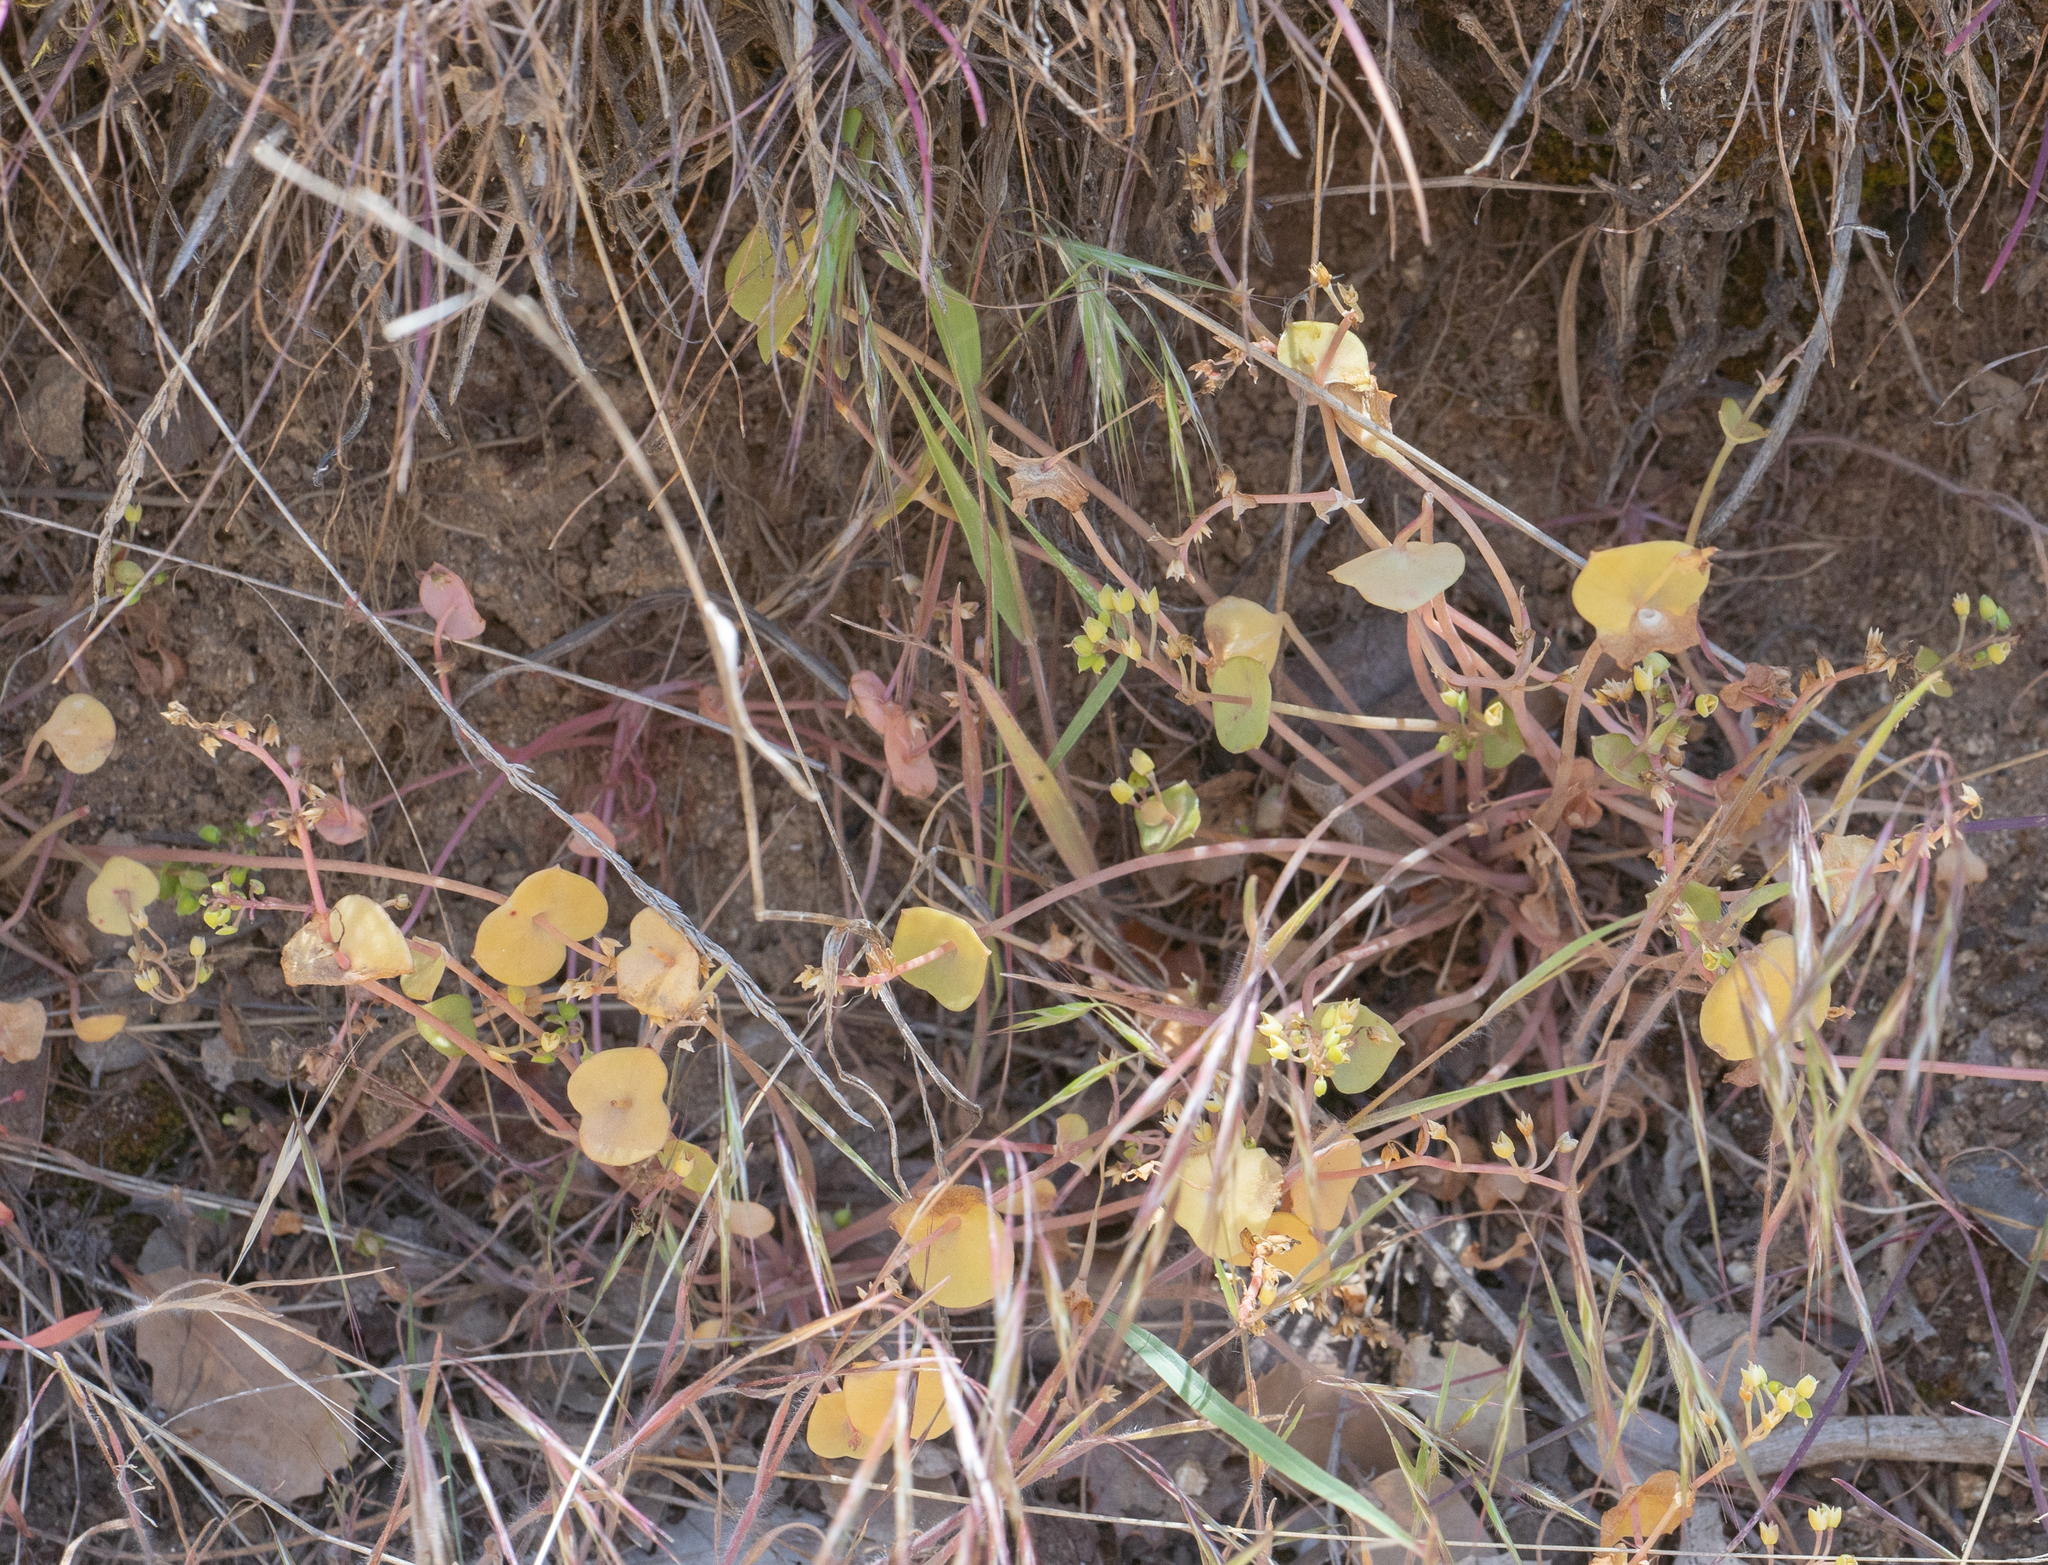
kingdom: Plantae
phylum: Tracheophyta
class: Magnoliopsida
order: Caryophyllales
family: Montiaceae
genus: Claytonia
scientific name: Claytonia perfoliata
